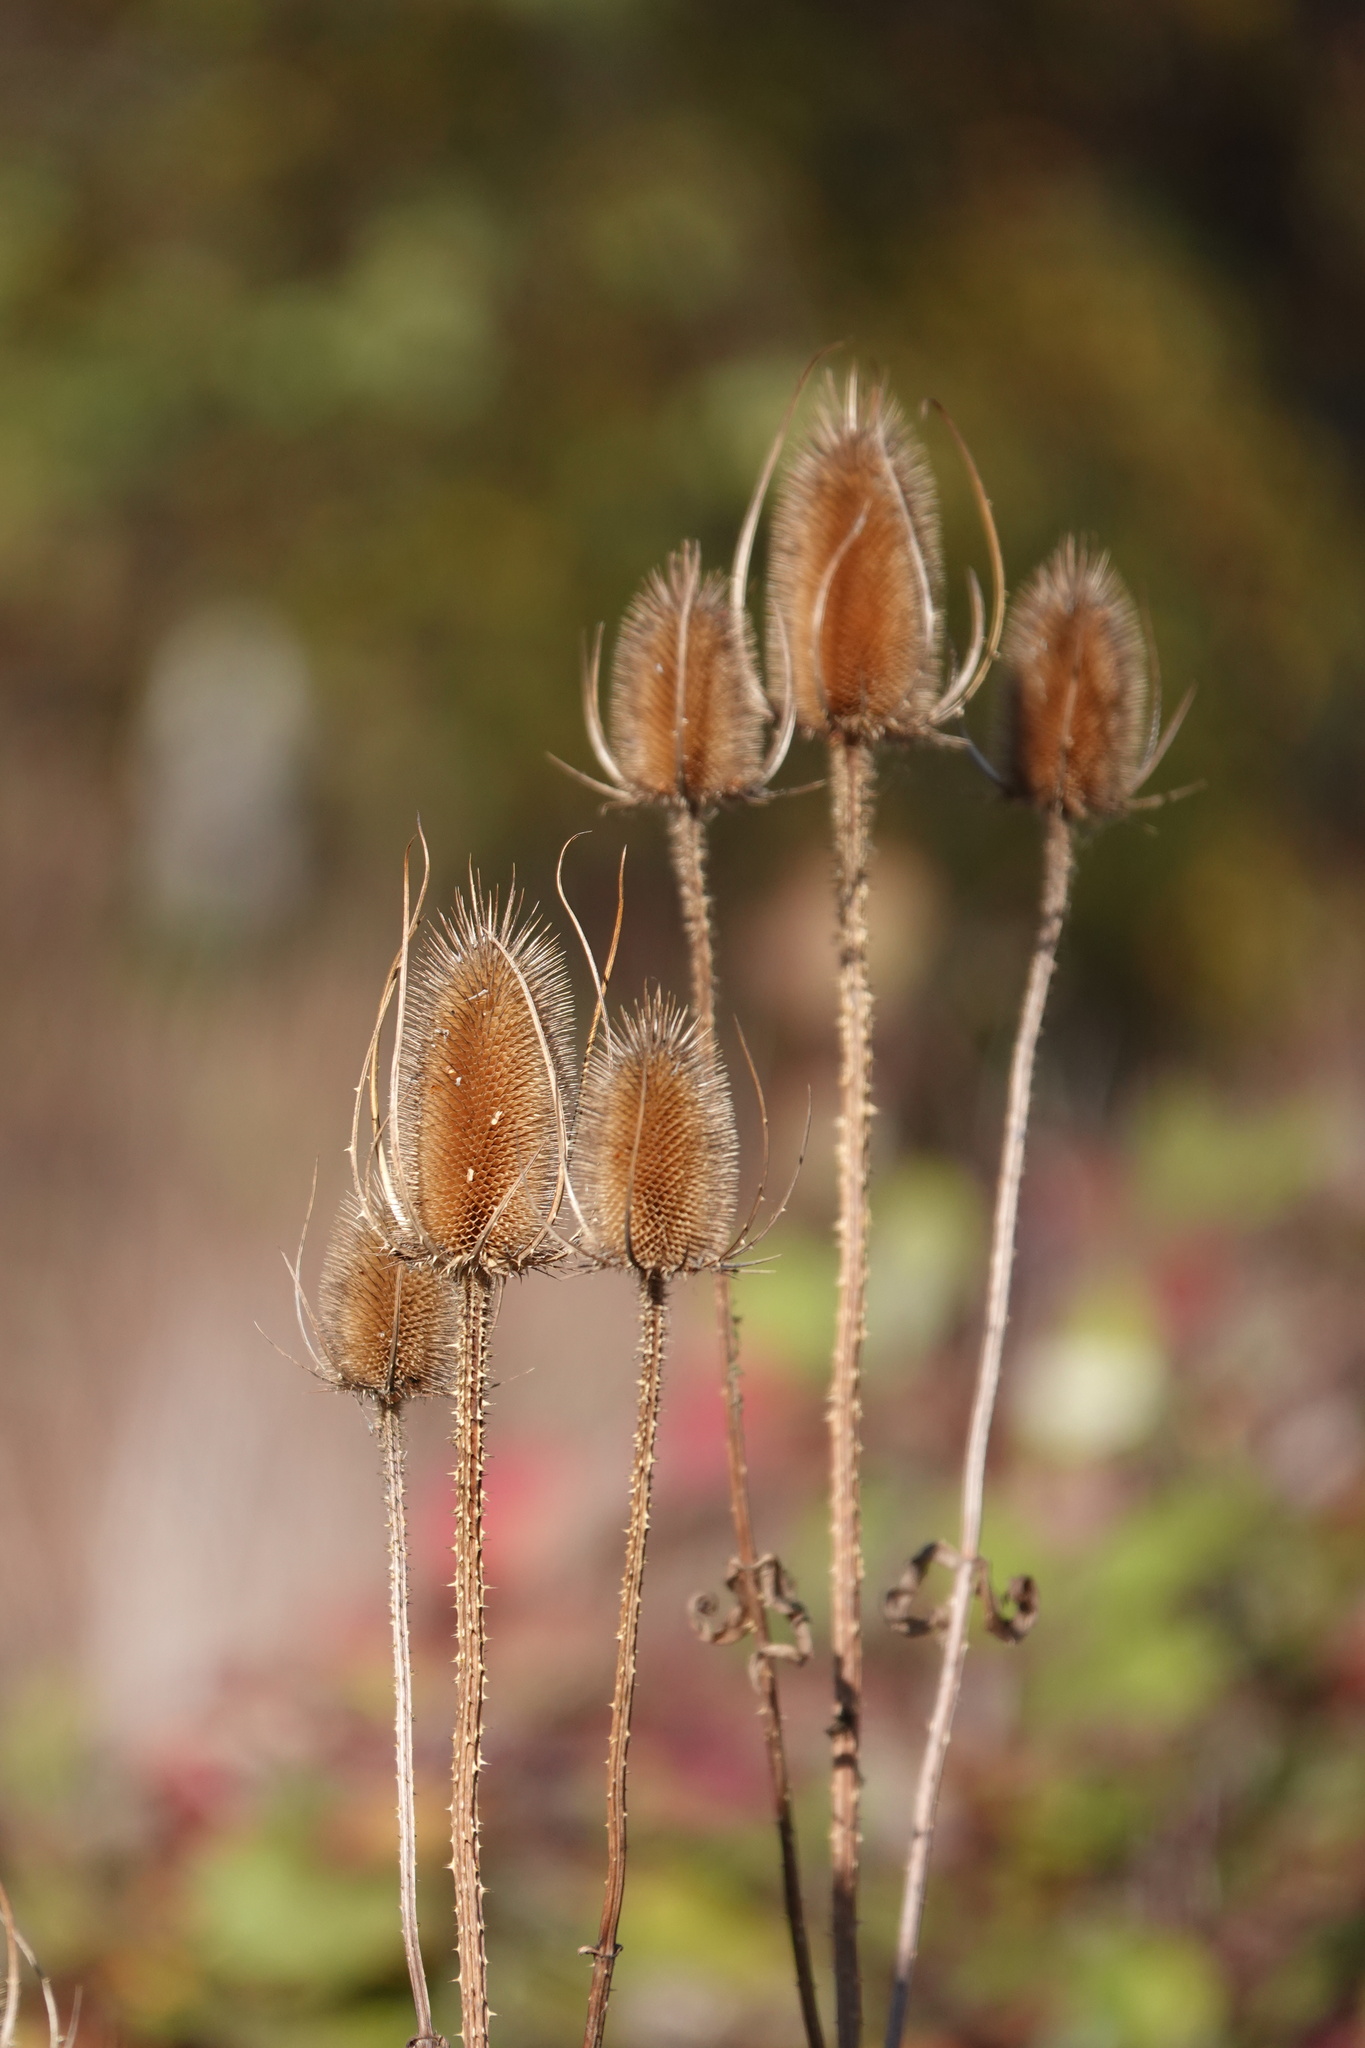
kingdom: Plantae
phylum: Tracheophyta
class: Magnoliopsida
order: Dipsacales
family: Caprifoliaceae
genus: Dipsacus
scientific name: Dipsacus fullonum
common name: Teasel
